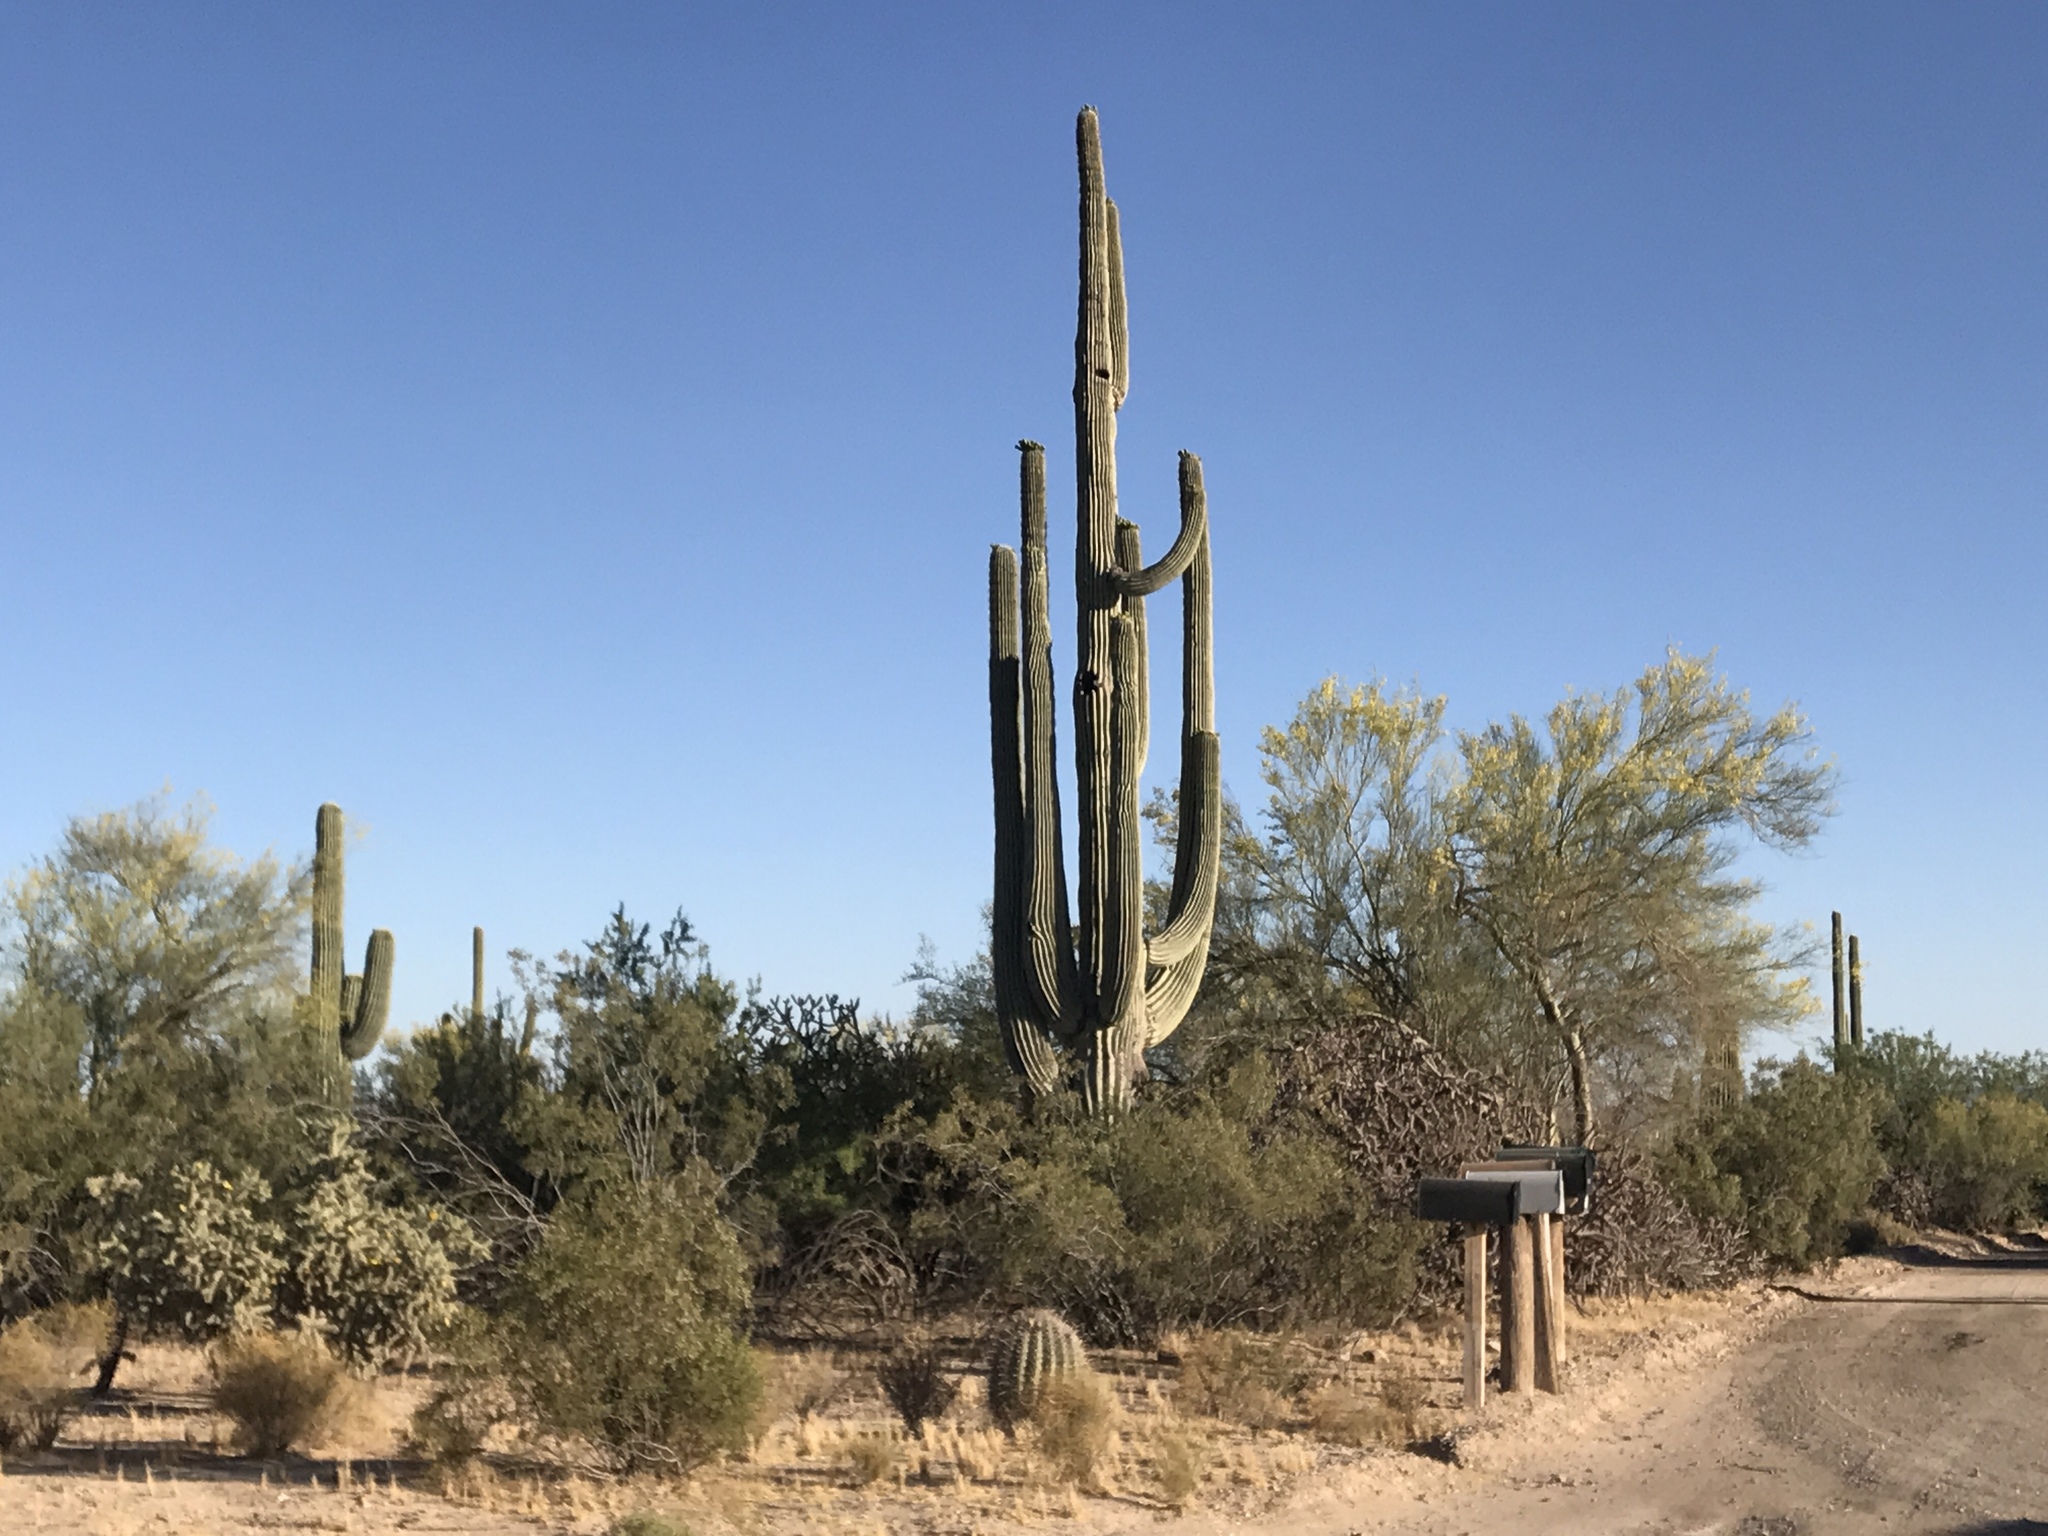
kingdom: Plantae
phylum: Tracheophyta
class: Magnoliopsida
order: Caryophyllales
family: Cactaceae
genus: Carnegiea
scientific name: Carnegiea gigantea
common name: Saguaro
